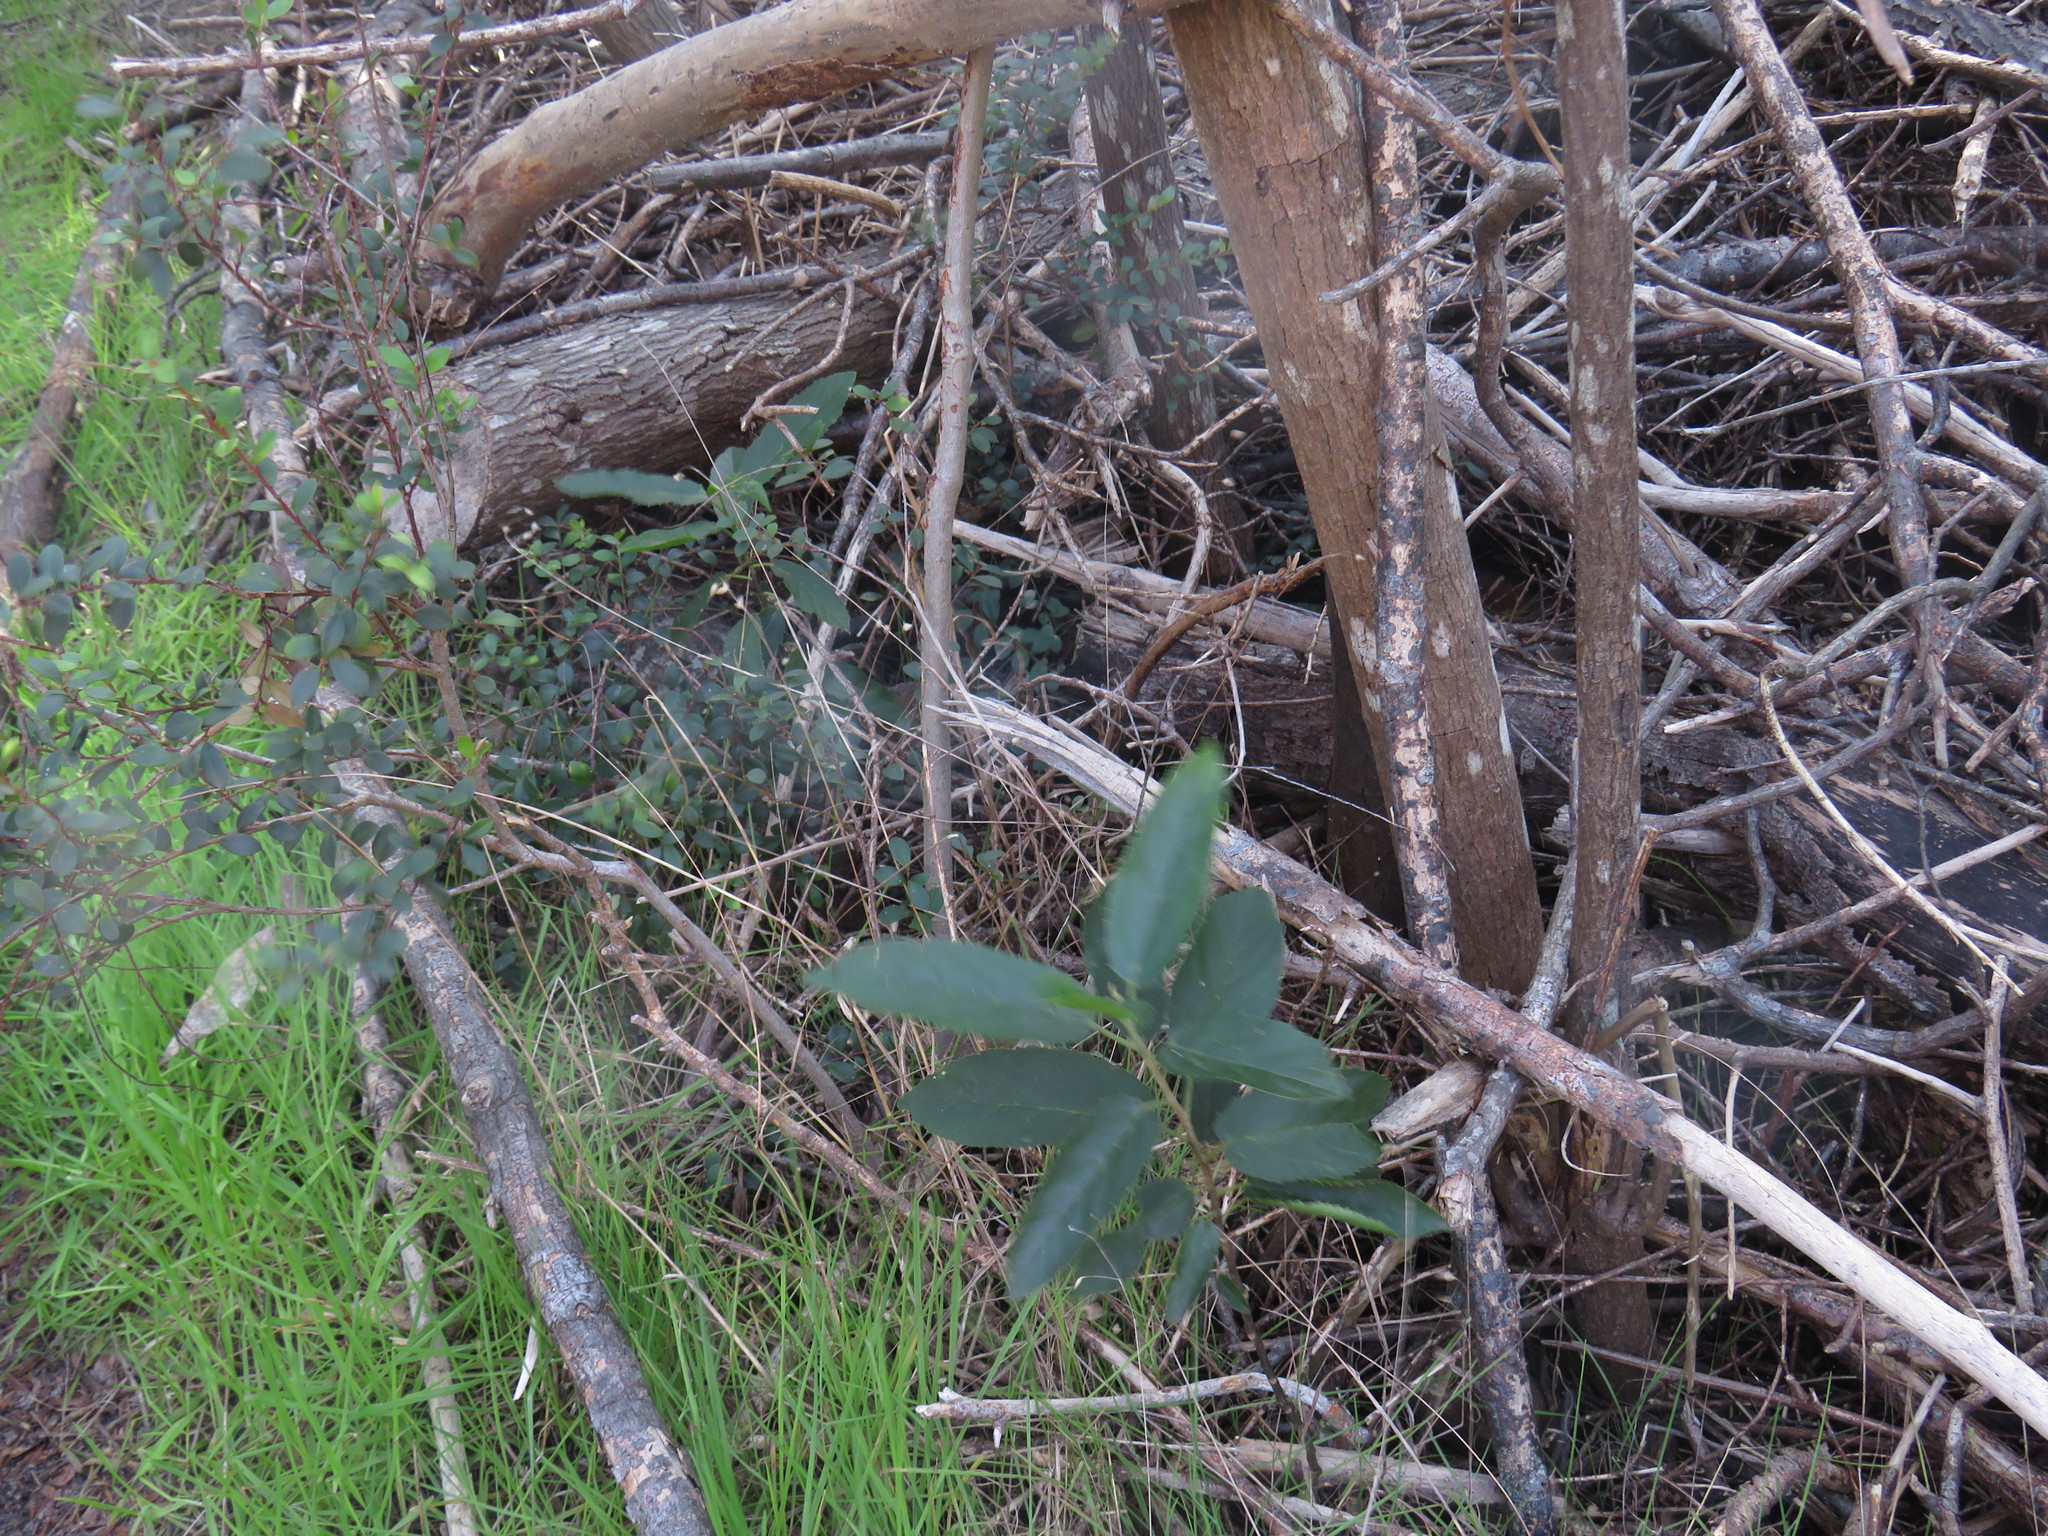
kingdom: Plantae
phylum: Tracheophyta
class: Magnoliopsida
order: Malpighiales
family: Achariaceae
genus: Kiggelaria
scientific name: Kiggelaria africana
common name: Wild peach
